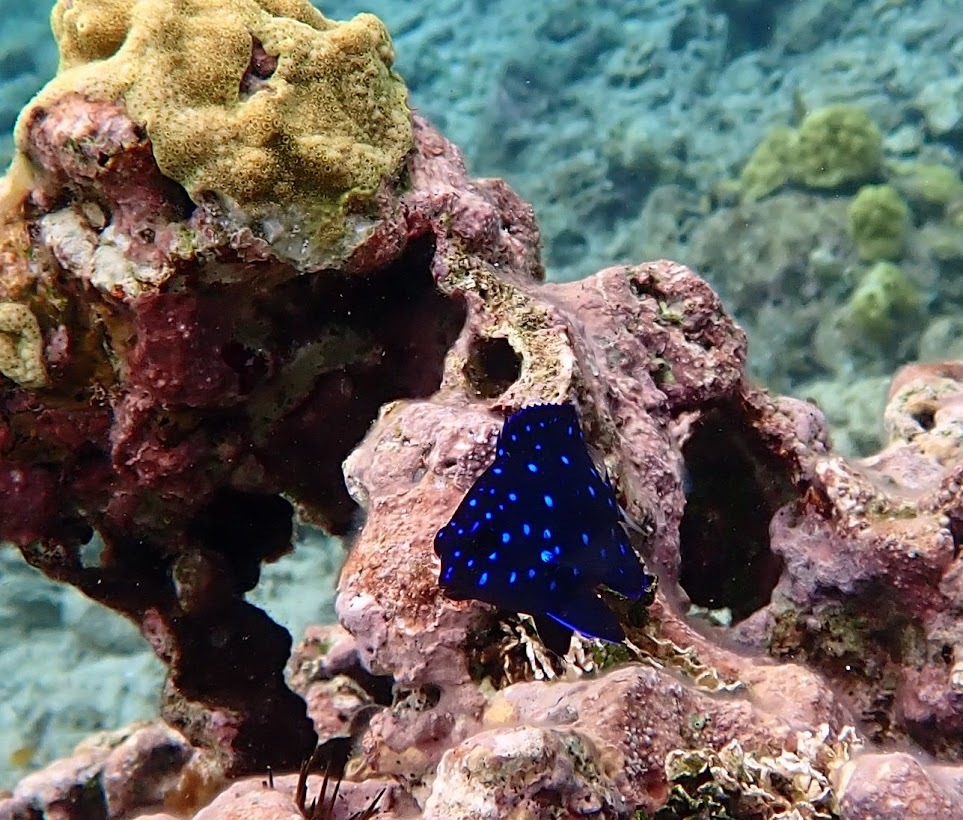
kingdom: Animalia
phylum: Chordata
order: Perciformes
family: Pomacentridae
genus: Microspathodon
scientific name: Microspathodon chrysurus
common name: Yellowtail damselfish
